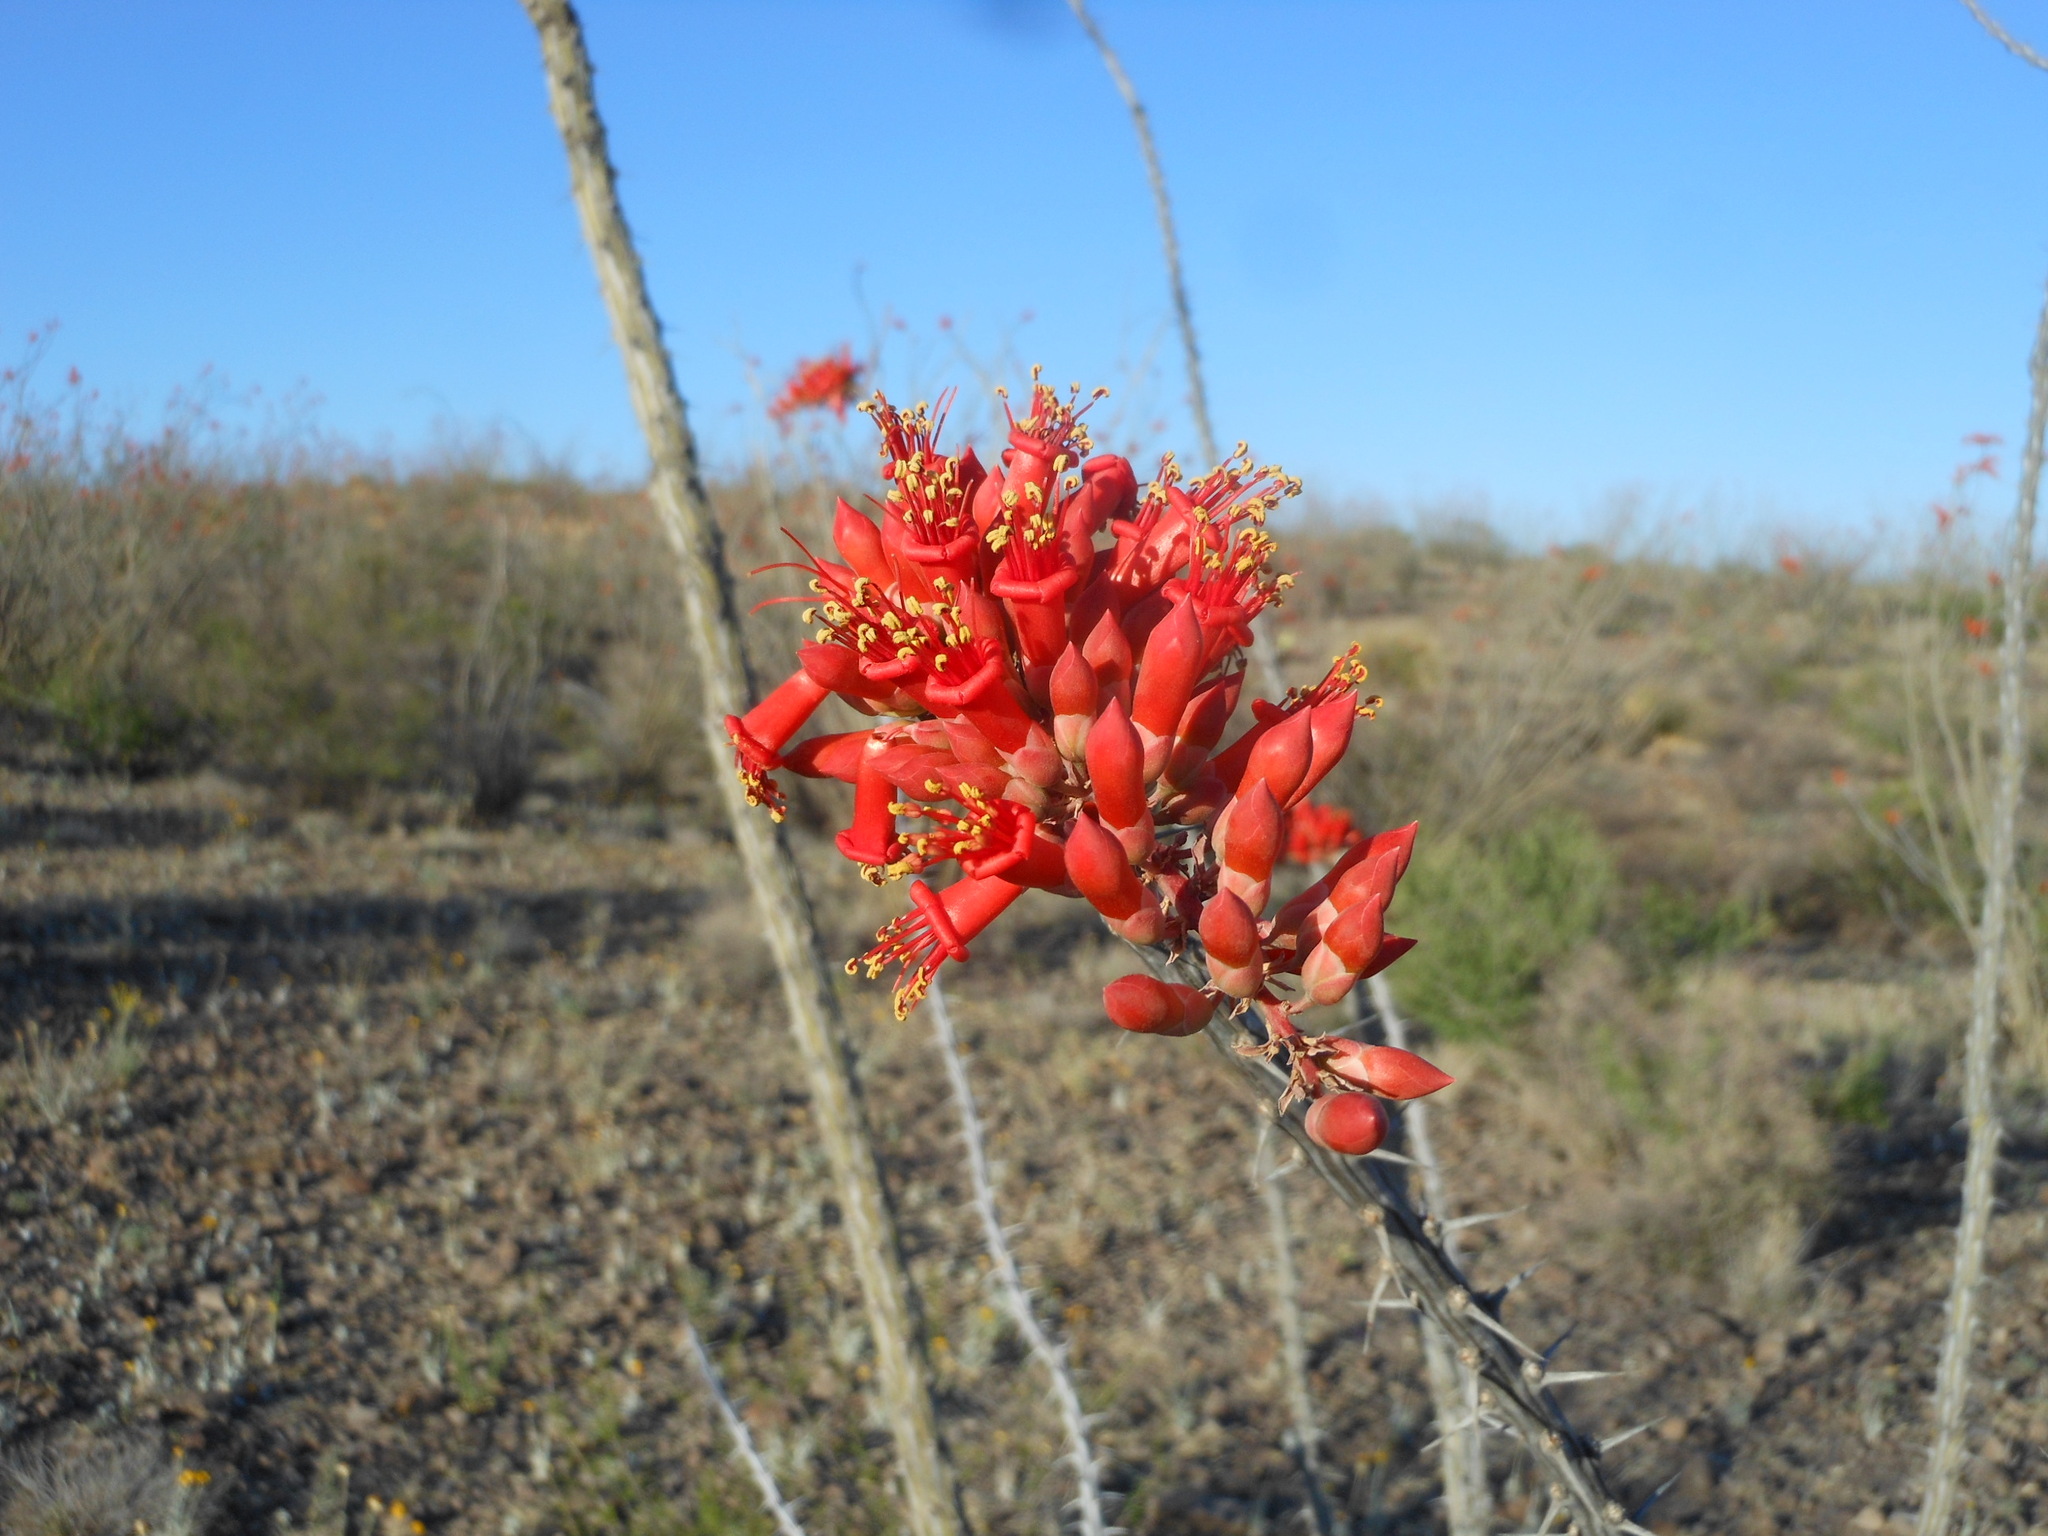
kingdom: Plantae
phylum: Tracheophyta
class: Magnoliopsida
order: Ericales
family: Fouquieriaceae
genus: Fouquieria
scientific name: Fouquieria splendens
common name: Vine-cactus
